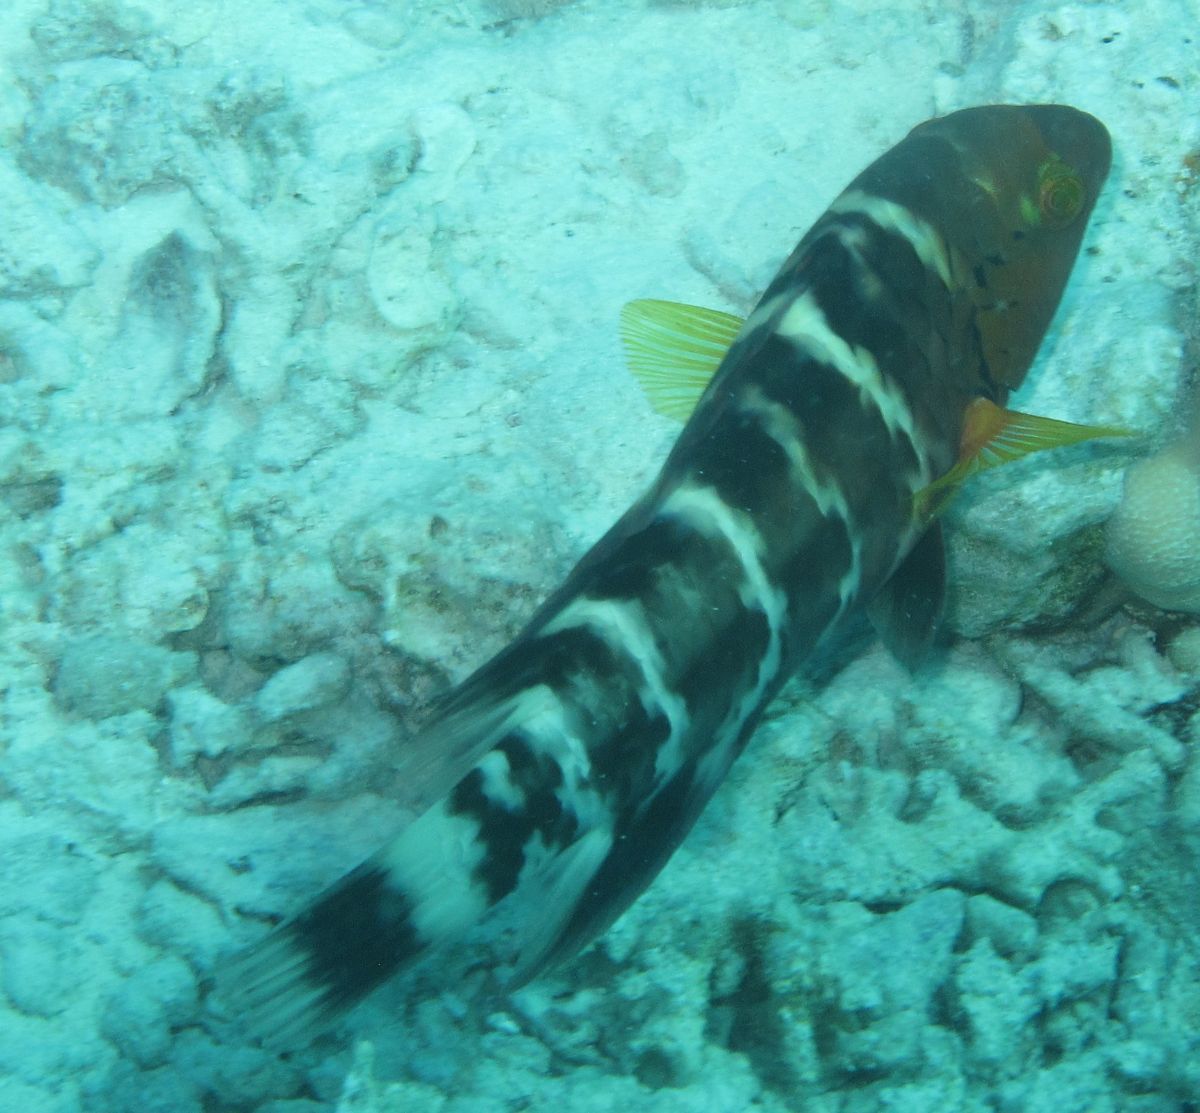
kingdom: Animalia
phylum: Chordata
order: Perciformes
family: Labridae
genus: Cheilinus
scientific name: Cheilinus fasciatus
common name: Red-breasted wrasse
